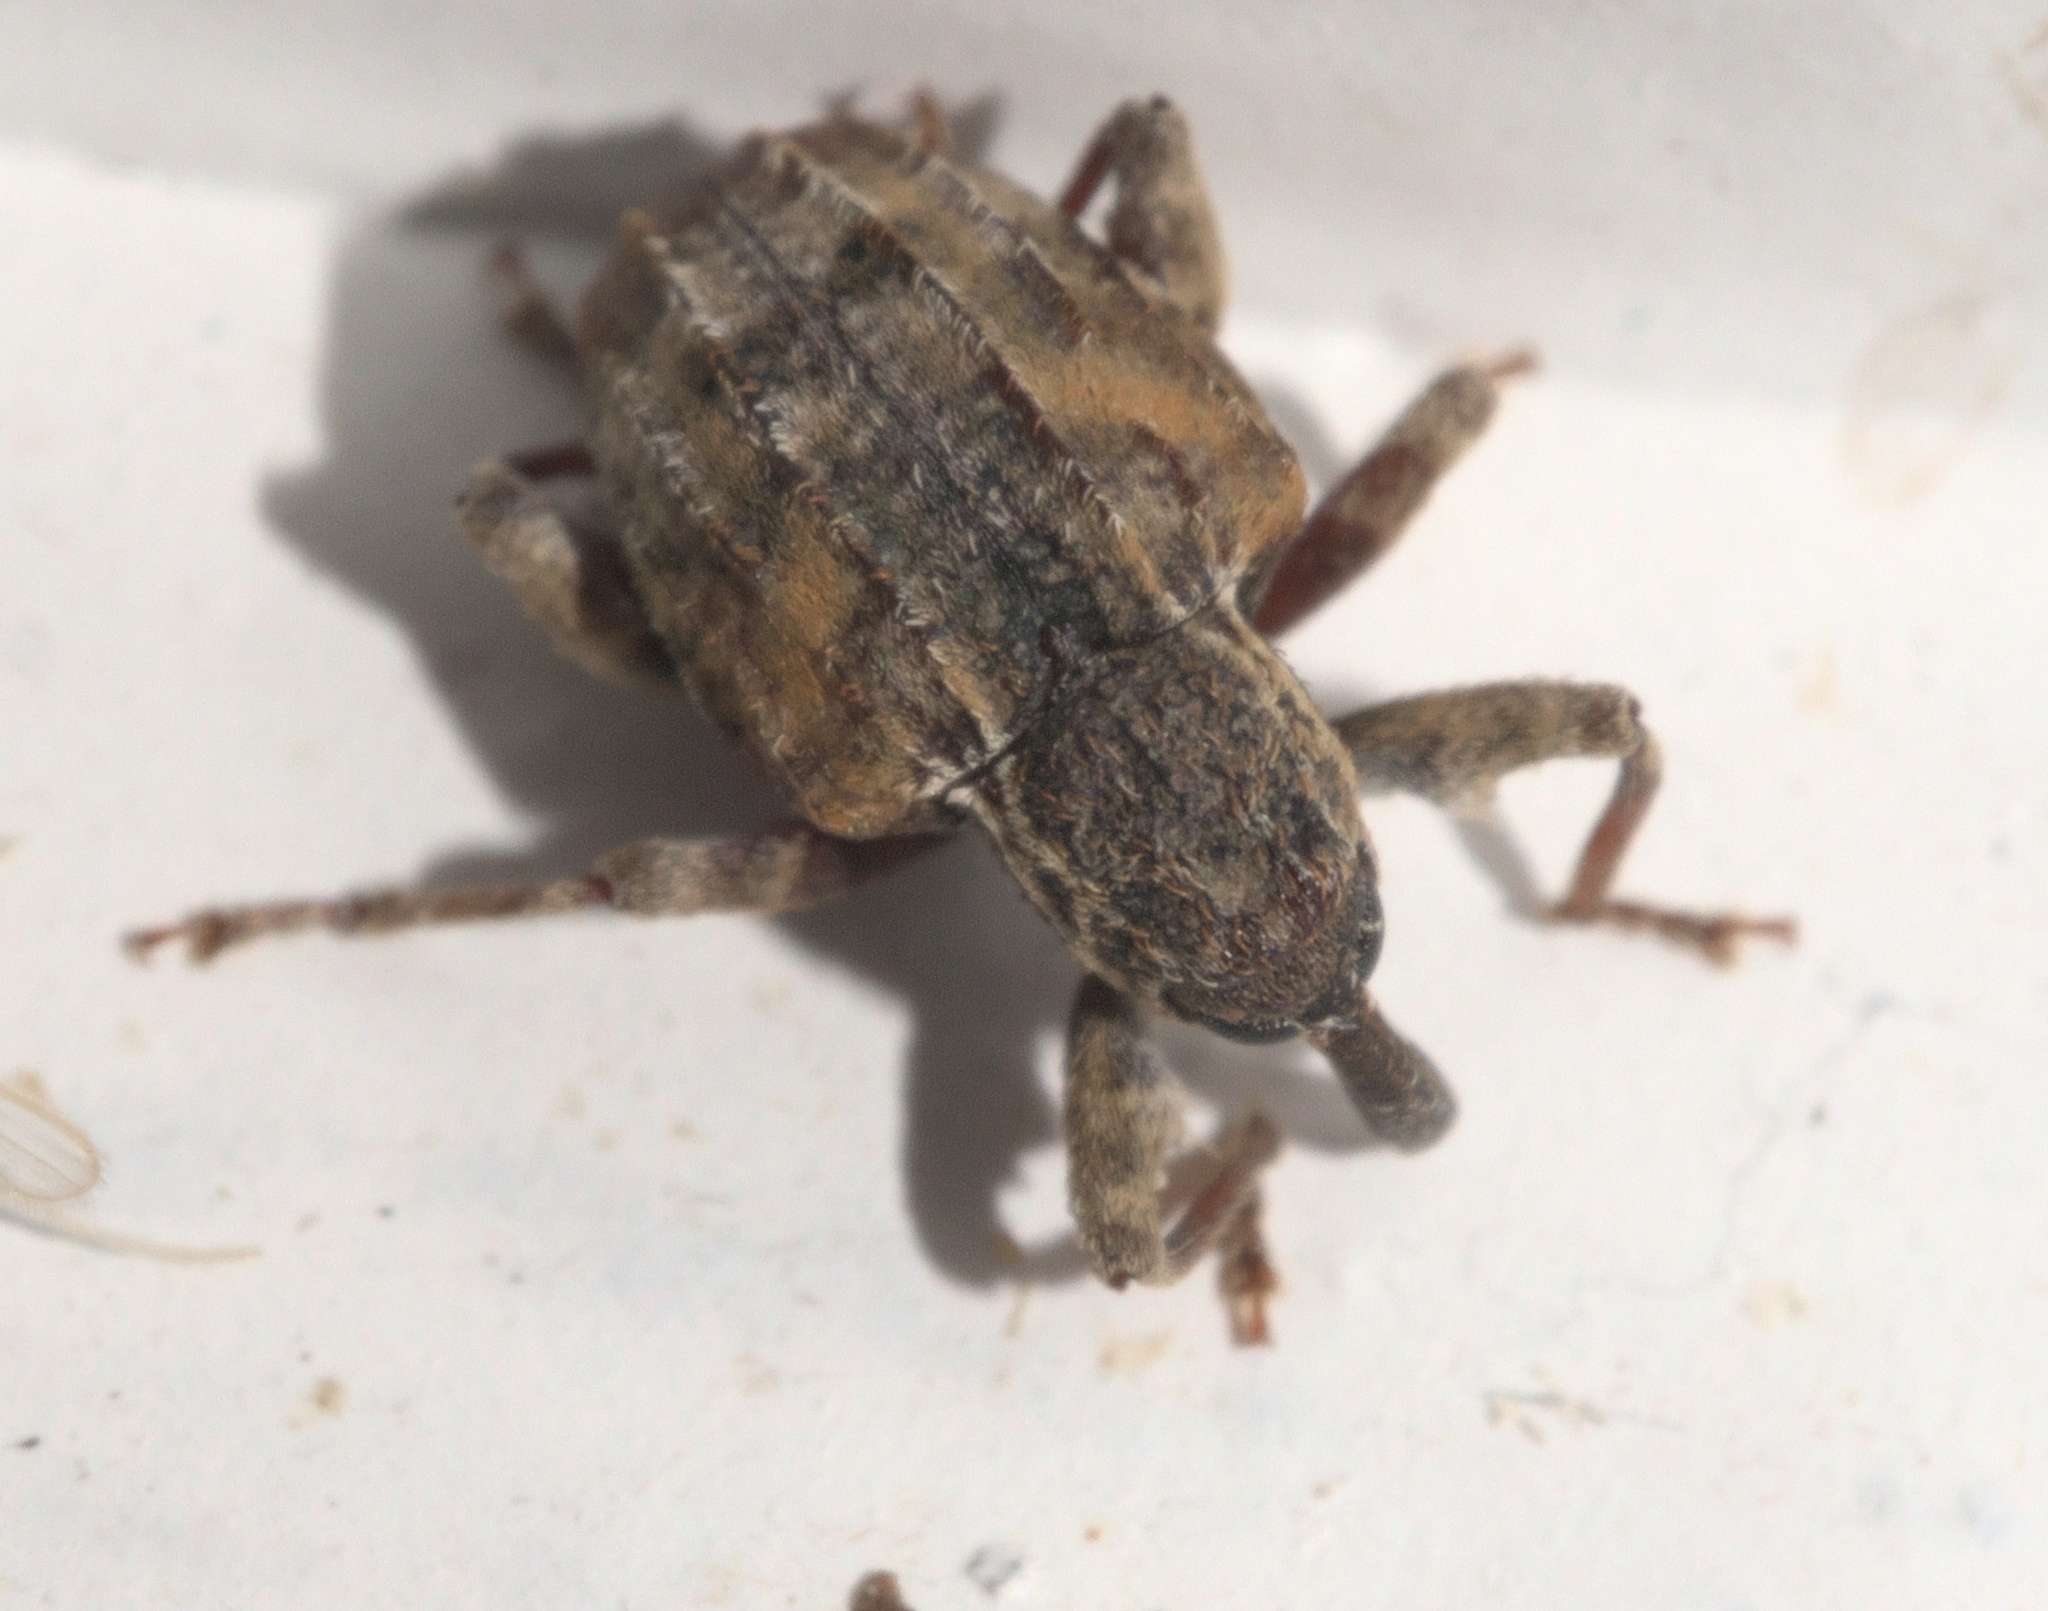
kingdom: Animalia
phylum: Arthropoda
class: Insecta
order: Coleoptera
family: Curculionidae
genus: Conotrachelus
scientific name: Conotrachelus anaglypticus
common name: Cambium curculio
